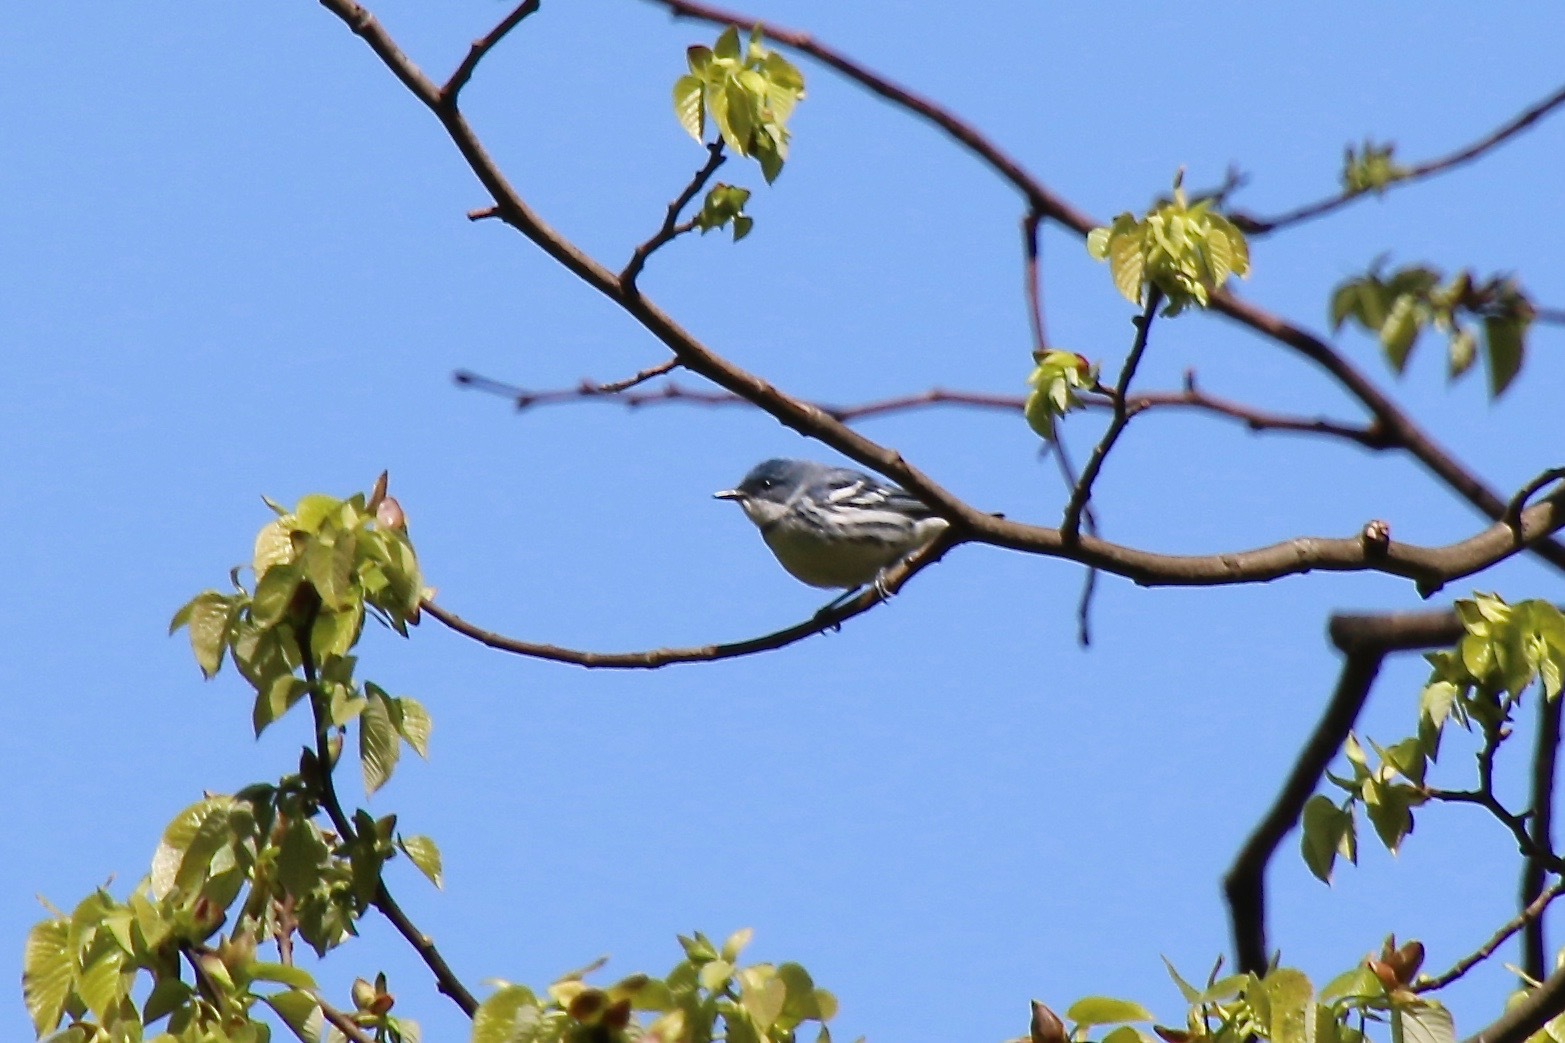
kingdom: Animalia
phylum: Chordata
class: Aves
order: Passeriformes
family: Parulidae
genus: Setophaga
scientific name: Setophaga cerulea
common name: Cerulean warbler
